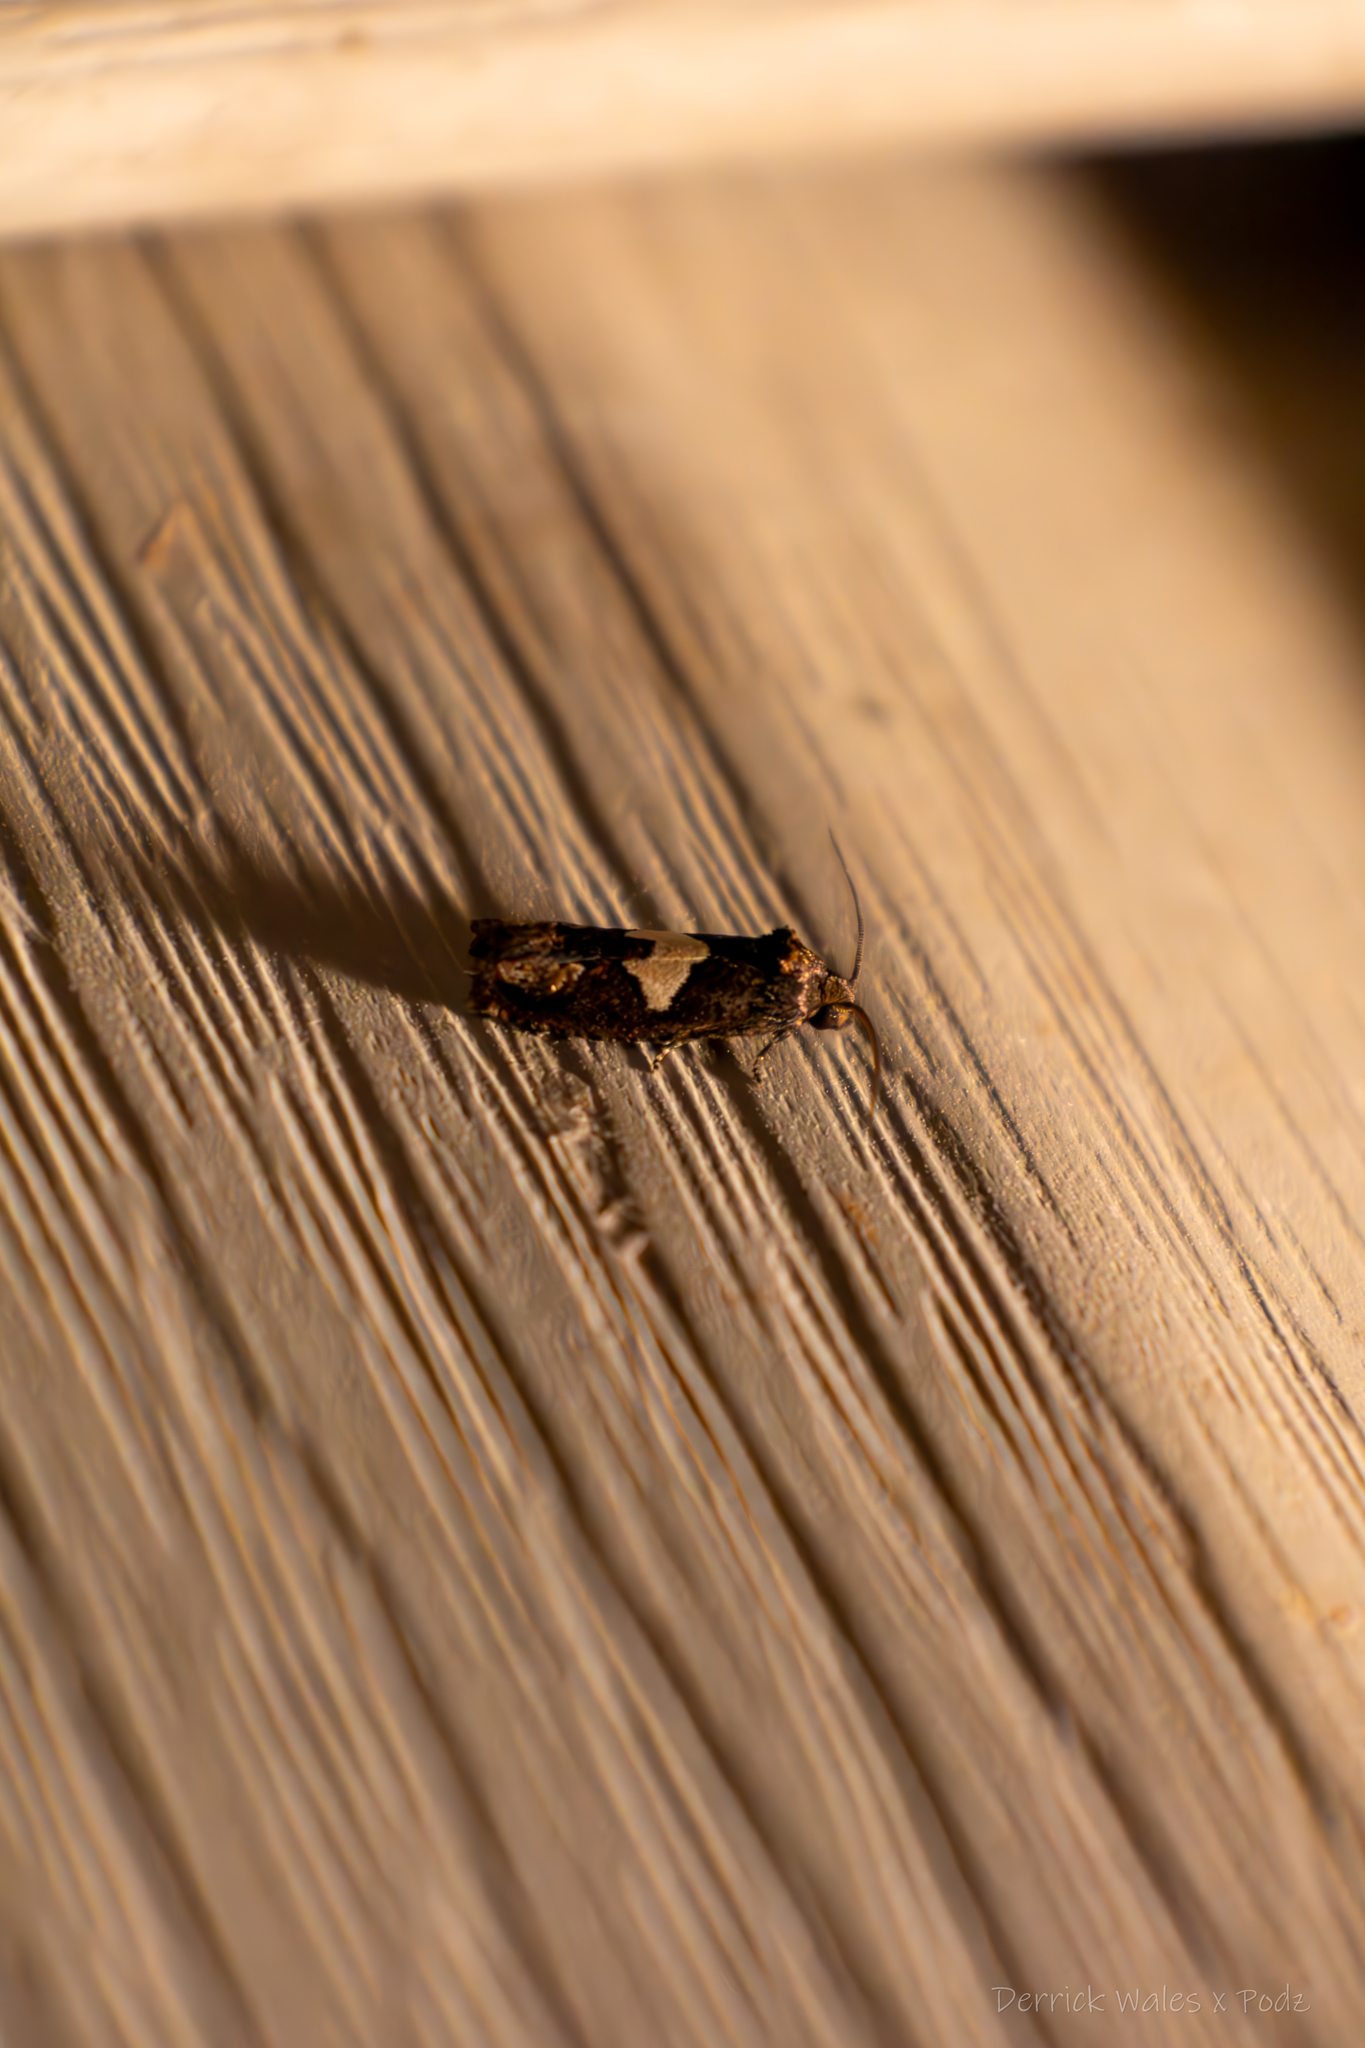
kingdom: Animalia
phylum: Arthropoda
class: Insecta
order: Lepidoptera
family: Tortricidae
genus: Epiblema
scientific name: Epiblema otiosana
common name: Bidens borer moth
